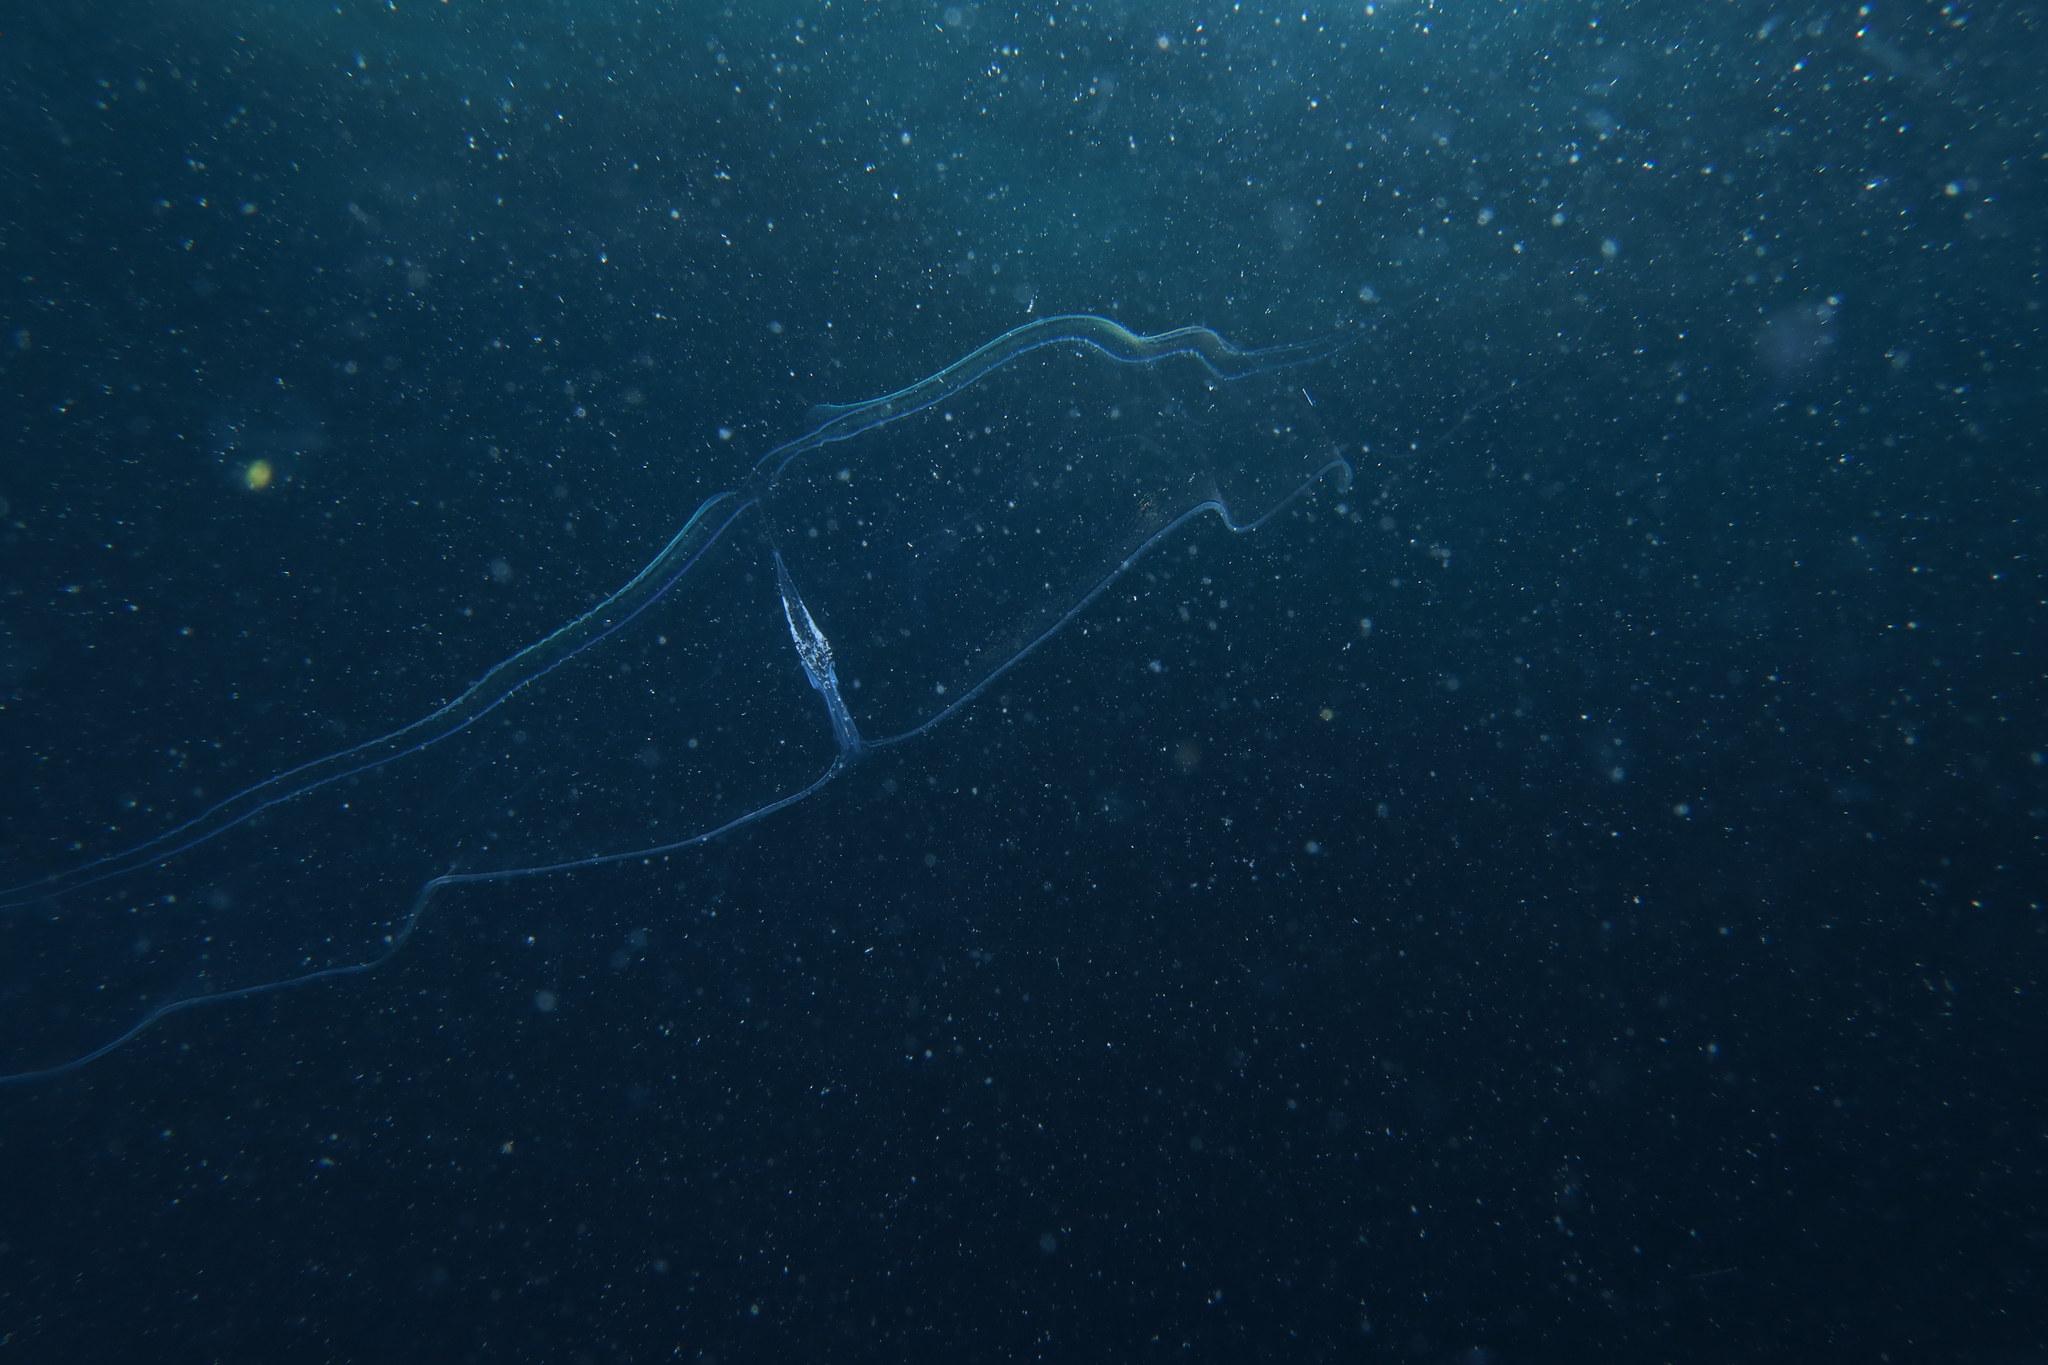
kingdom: Animalia
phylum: Ctenophora
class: Tentaculata
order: Cestida
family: Cestidae
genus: Cestum
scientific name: Cestum veneris
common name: Venus girdle
